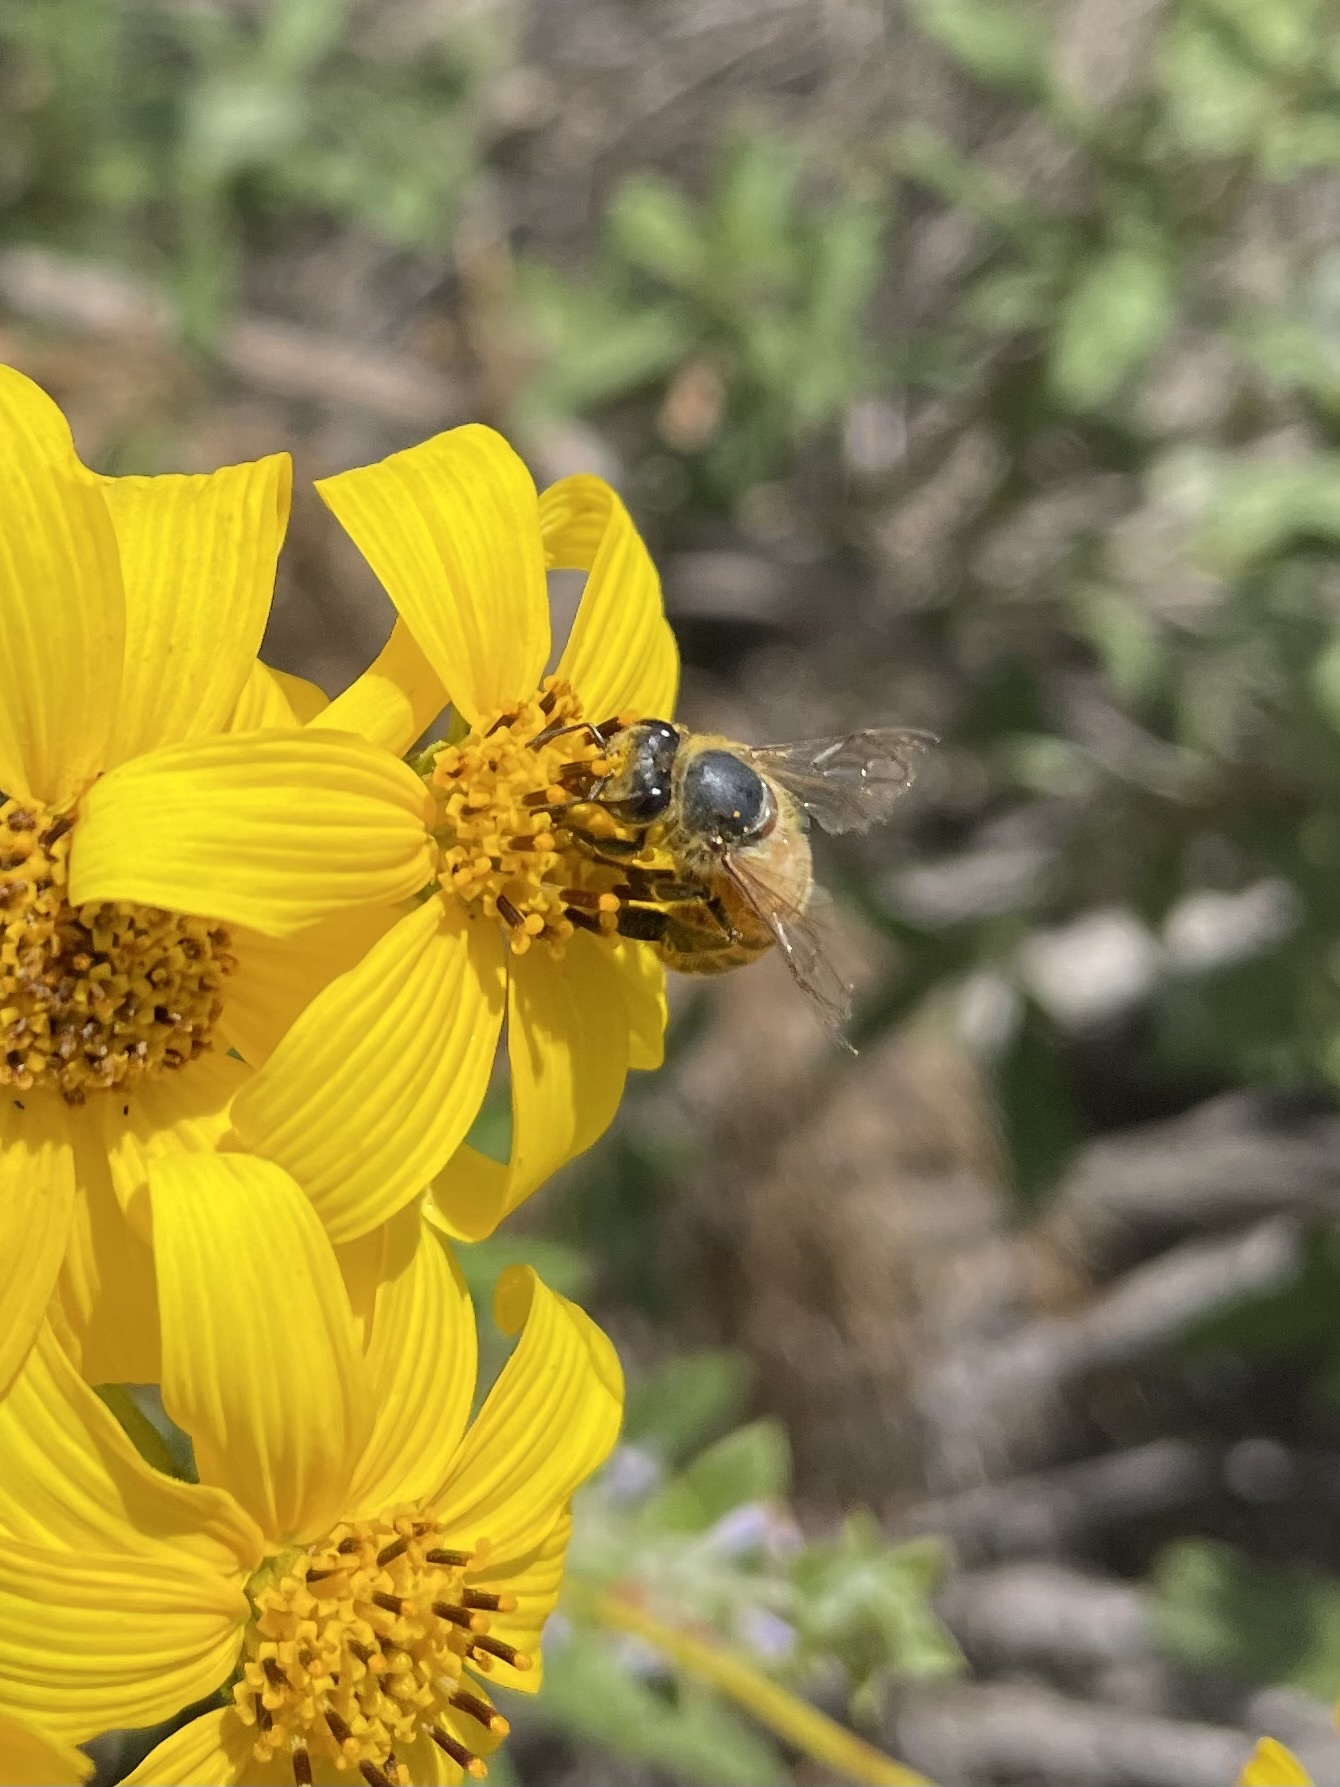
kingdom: Animalia
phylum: Arthropoda
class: Insecta
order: Hymenoptera
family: Apidae
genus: Apis
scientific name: Apis mellifera
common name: Honey bee
